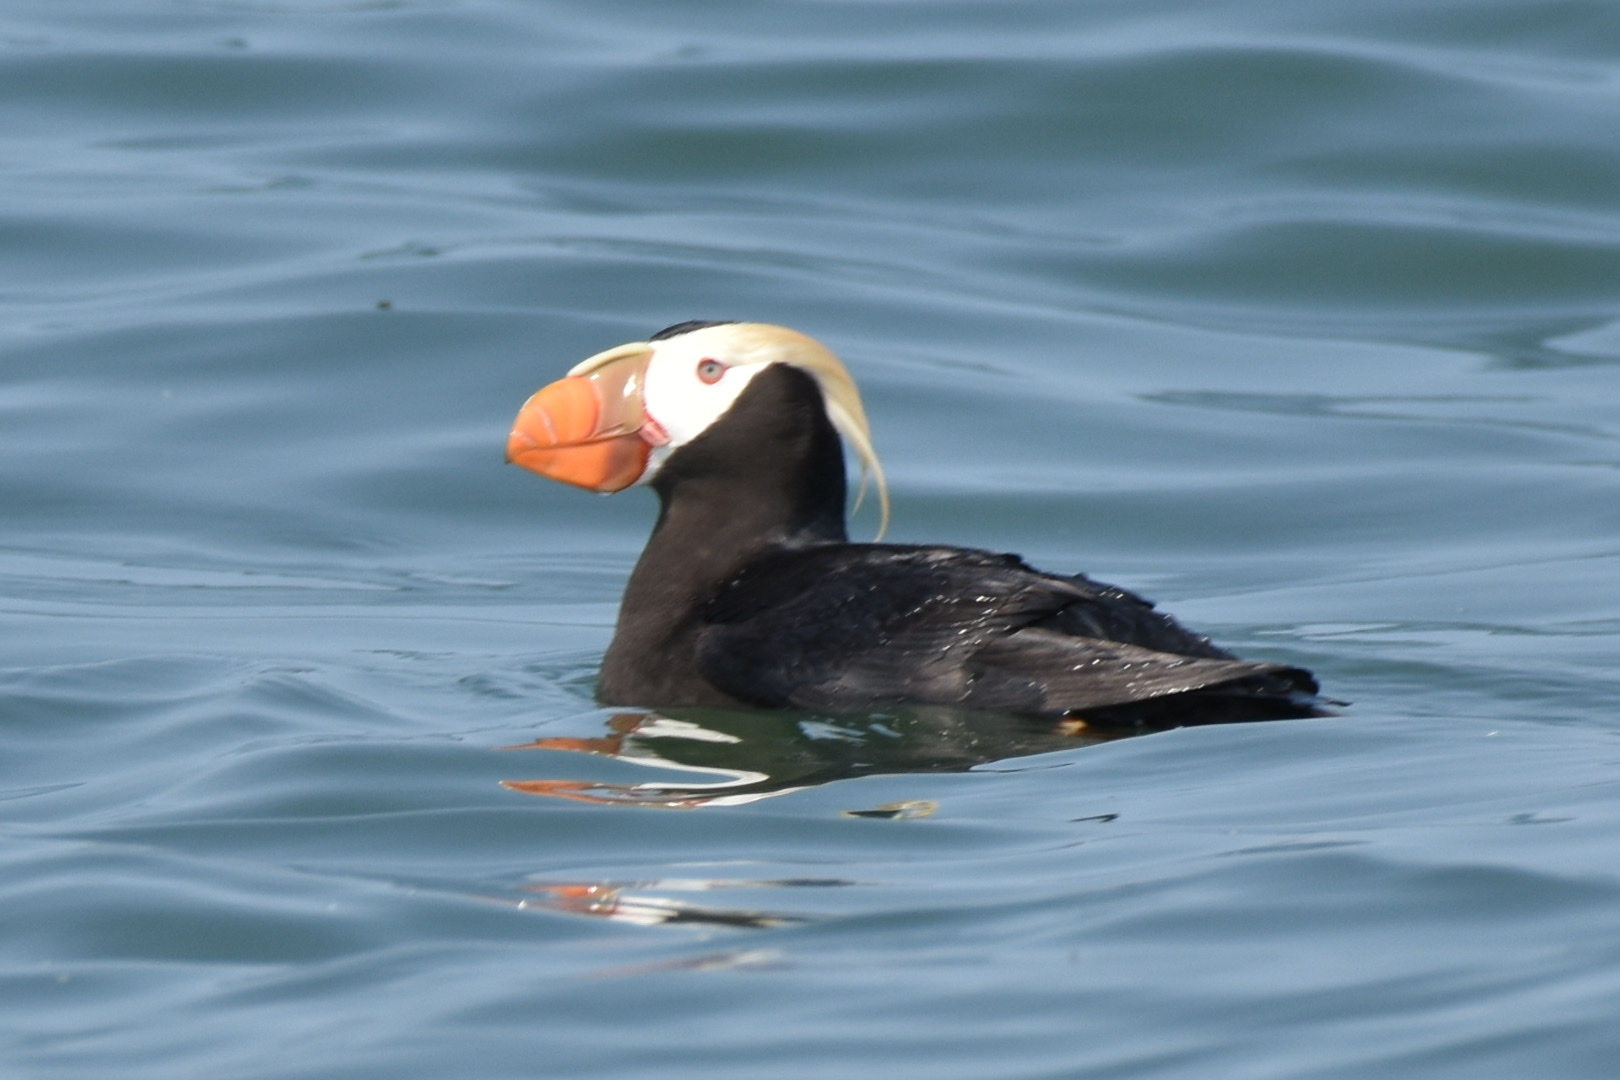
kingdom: Animalia
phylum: Chordata
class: Aves
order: Charadriiformes
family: Alcidae
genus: Fratercula
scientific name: Fratercula cirrhata
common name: Tufted puffin
